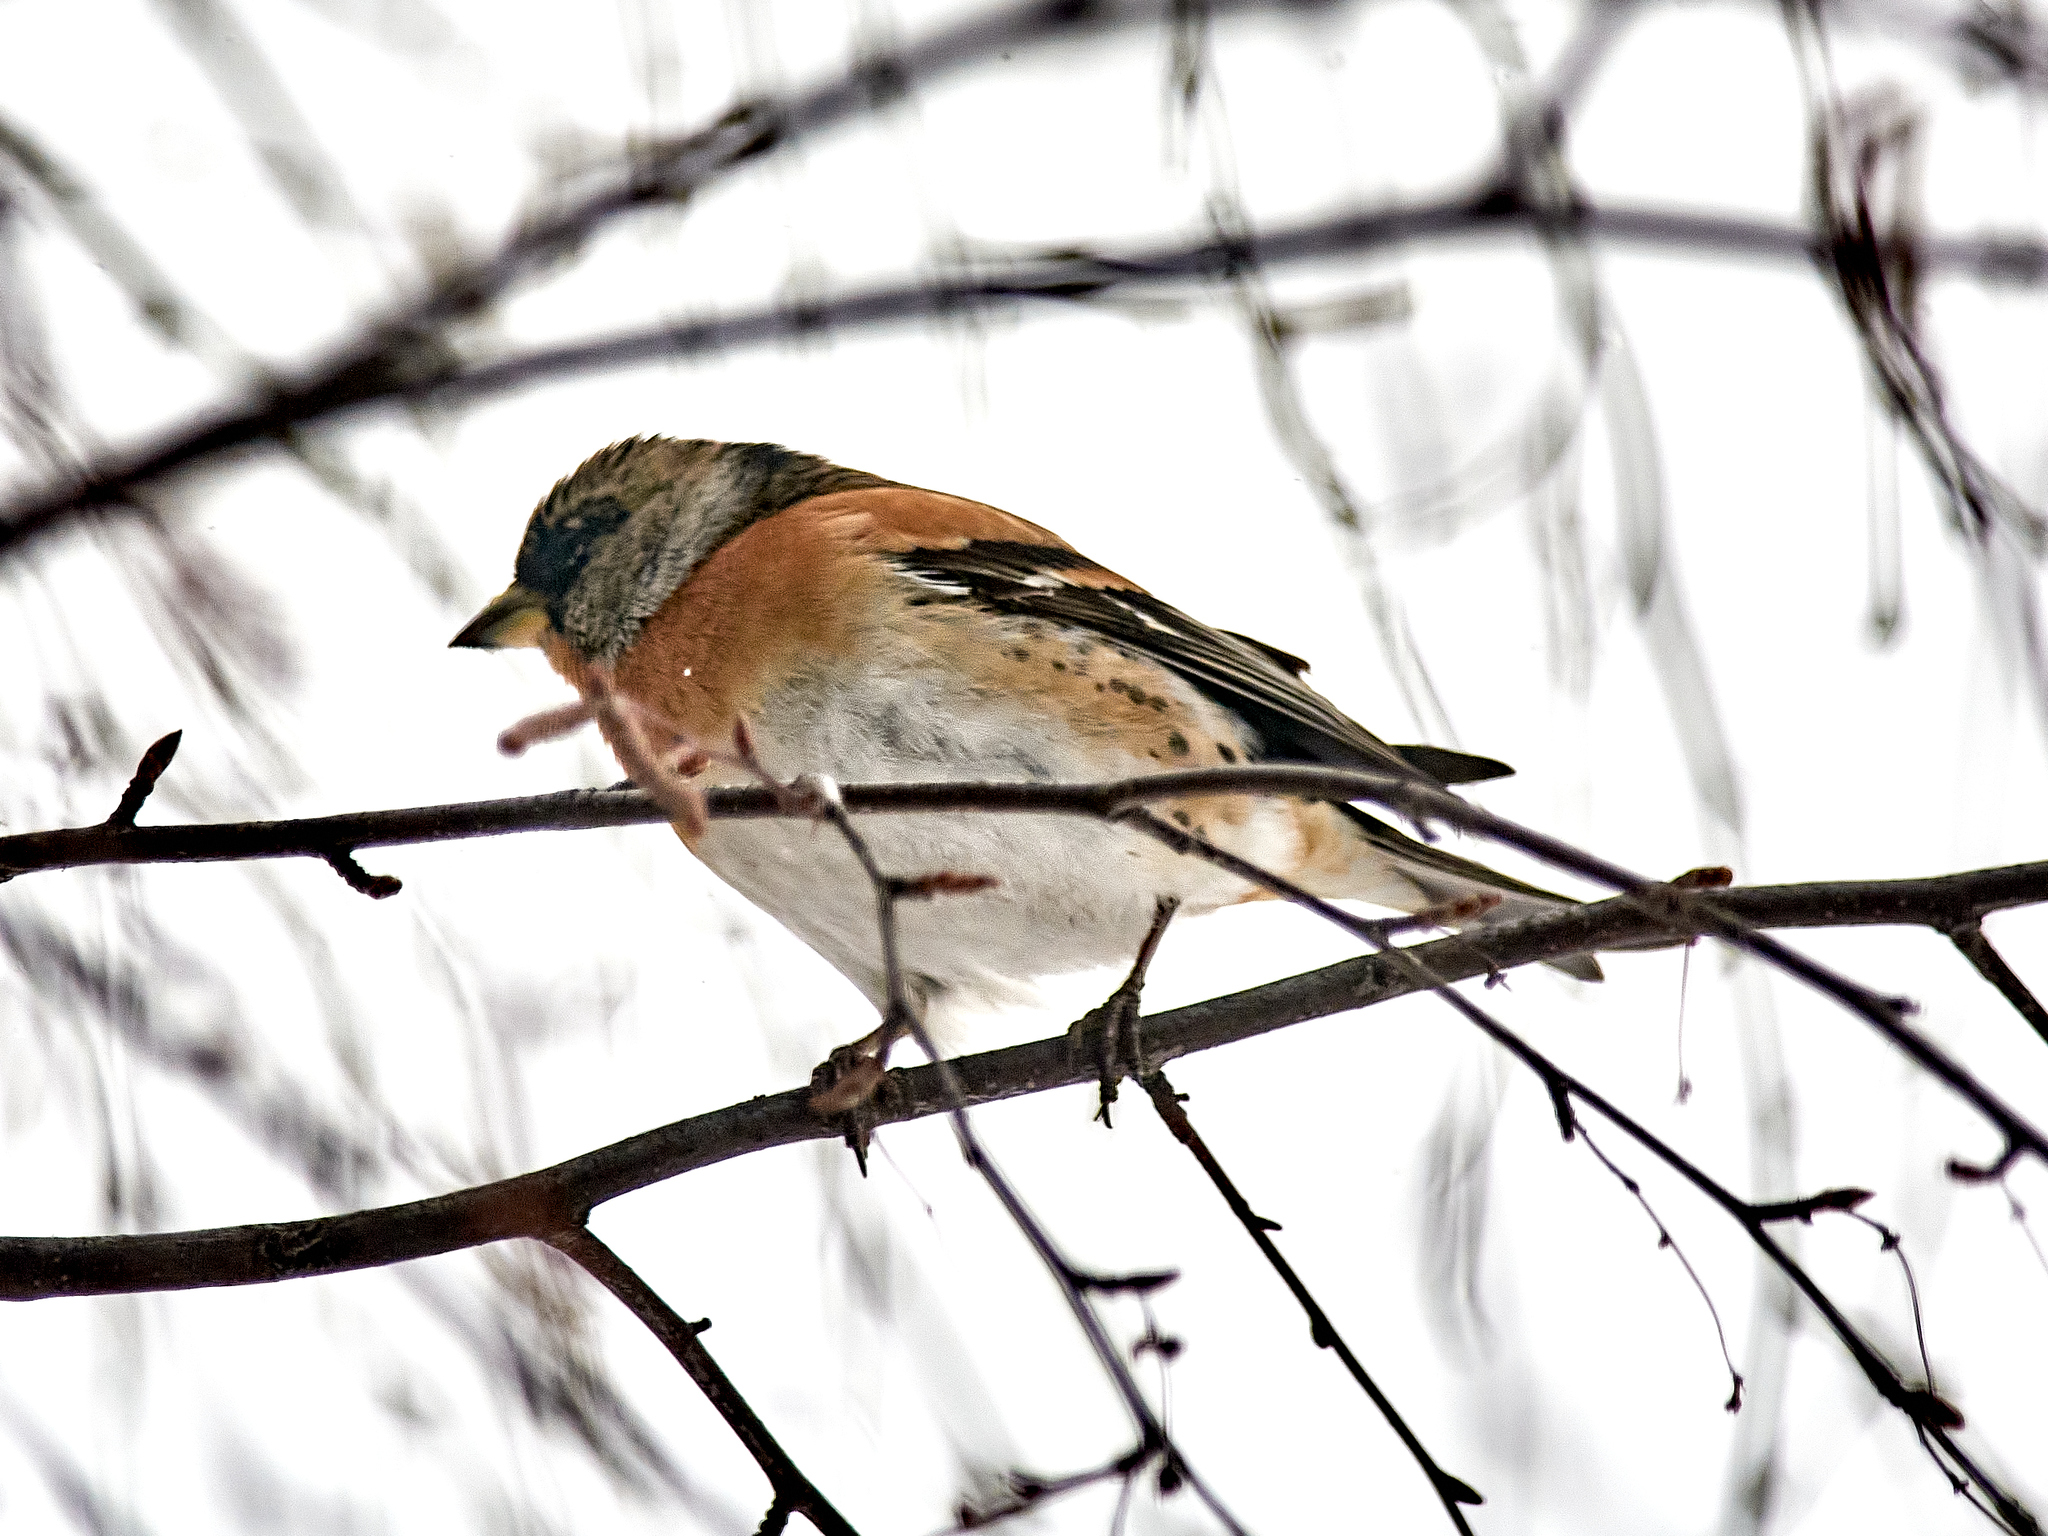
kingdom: Animalia
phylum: Chordata
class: Aves
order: Passeriformes
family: Fringillidae
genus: Fringilla
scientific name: Fringilla montifringilla
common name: Brambling
